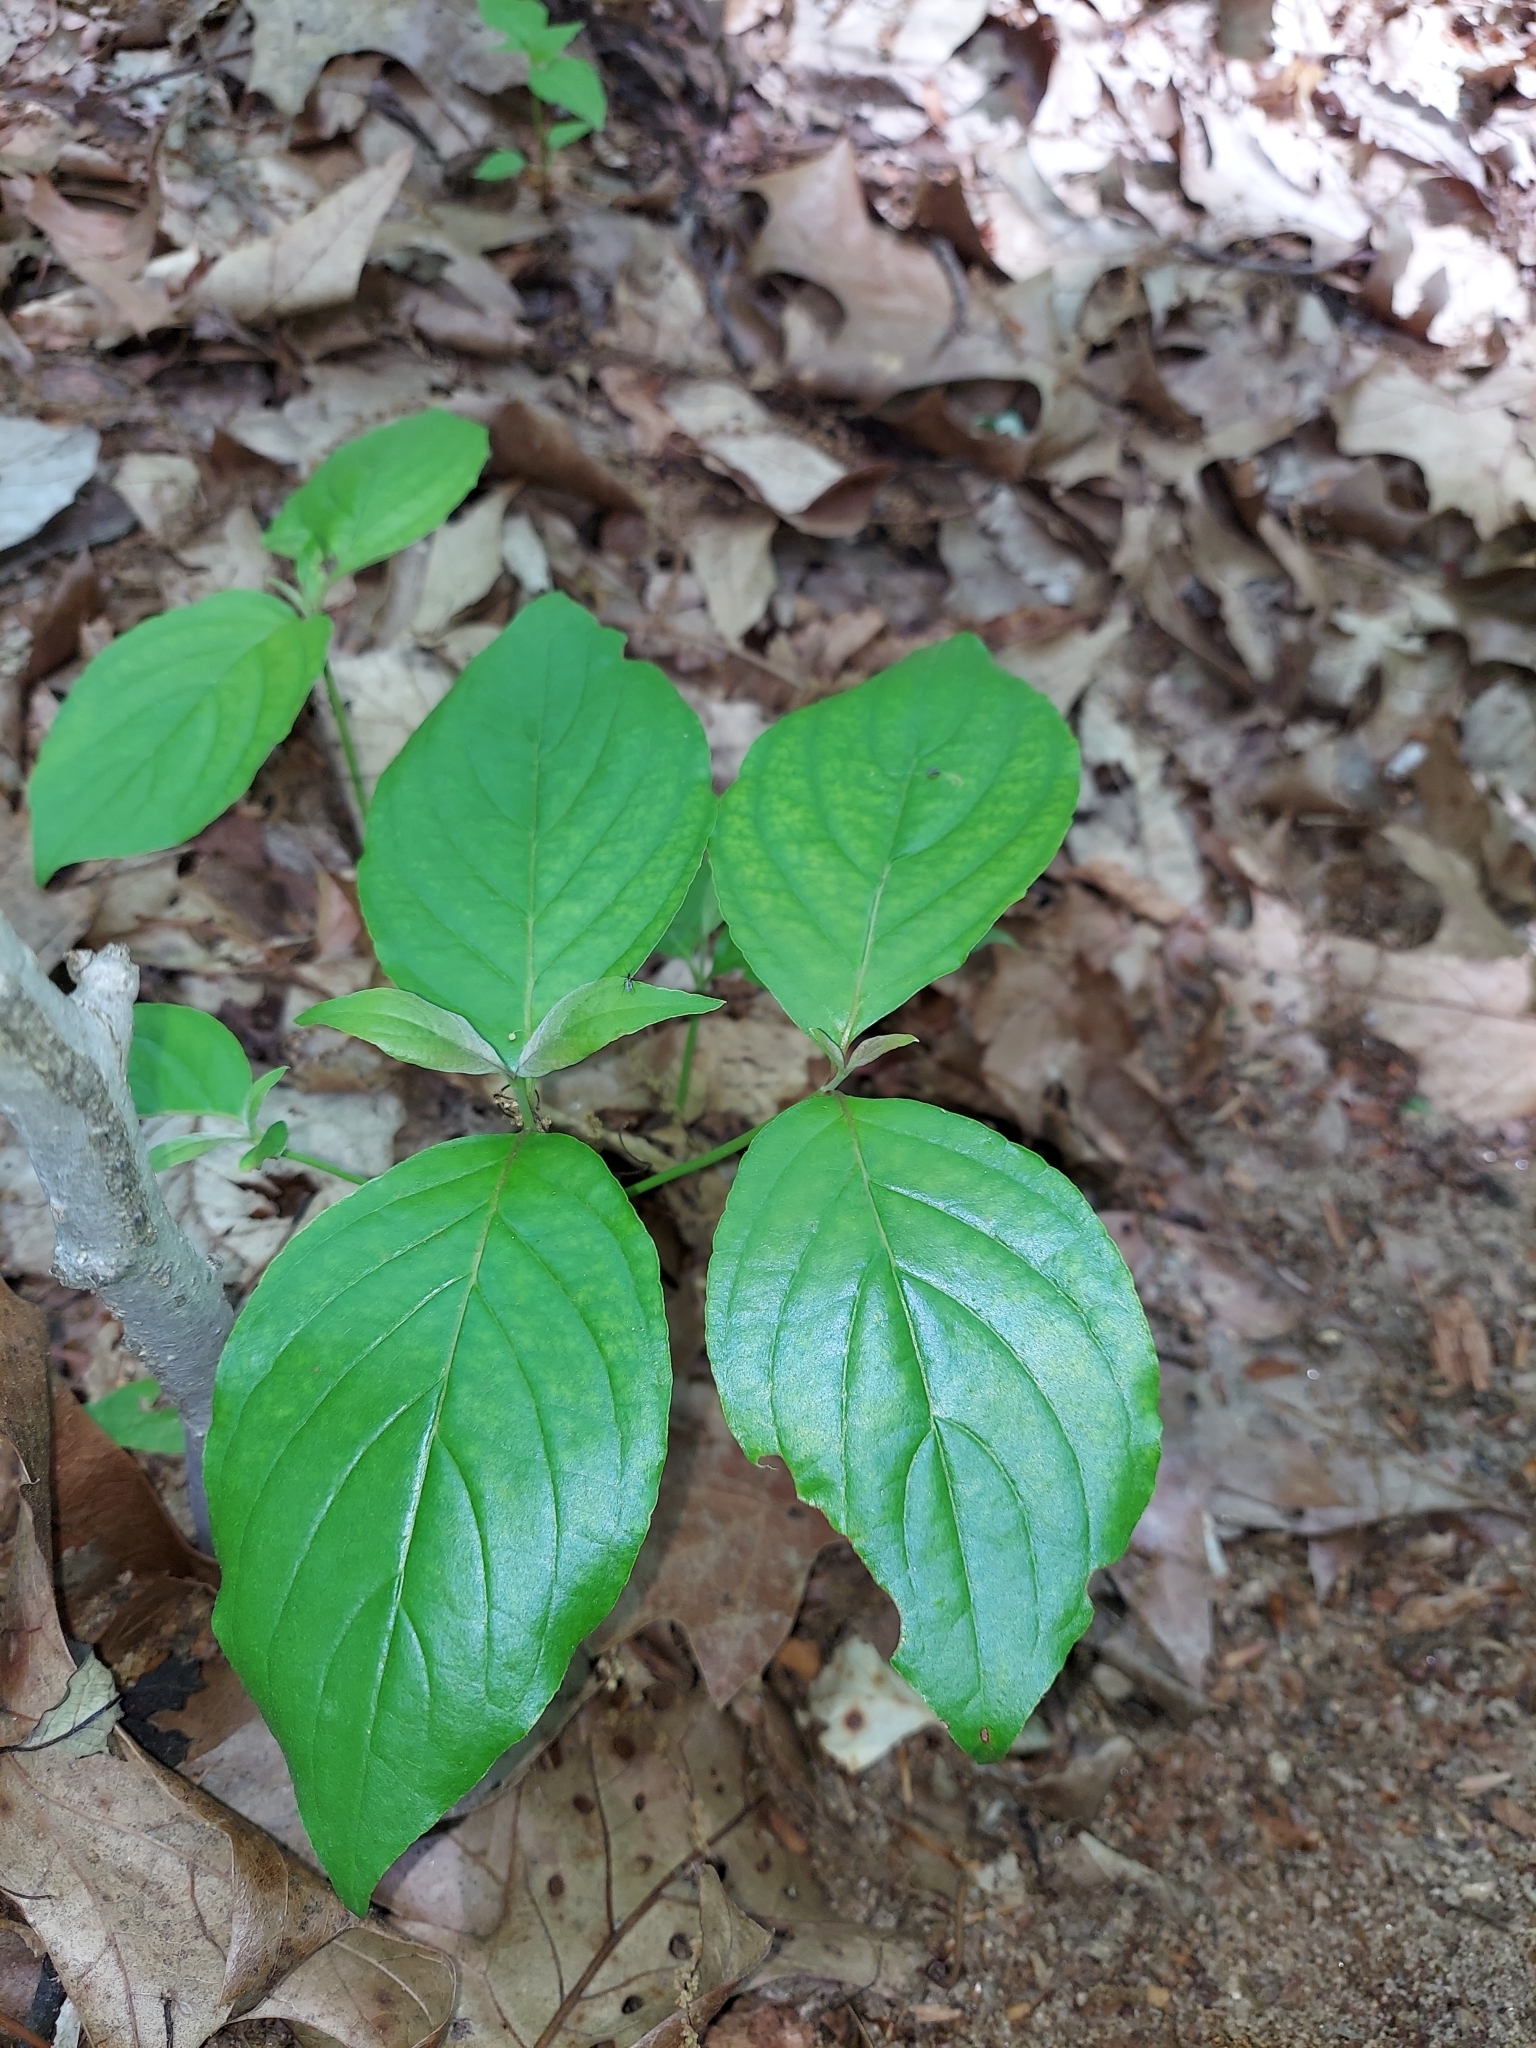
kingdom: Plantae
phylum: Tracheophyta
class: Magnoliopsida
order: Cornales
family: Cornaceae
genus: Cornus
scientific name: Cornus florida
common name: Flowering dogwood
